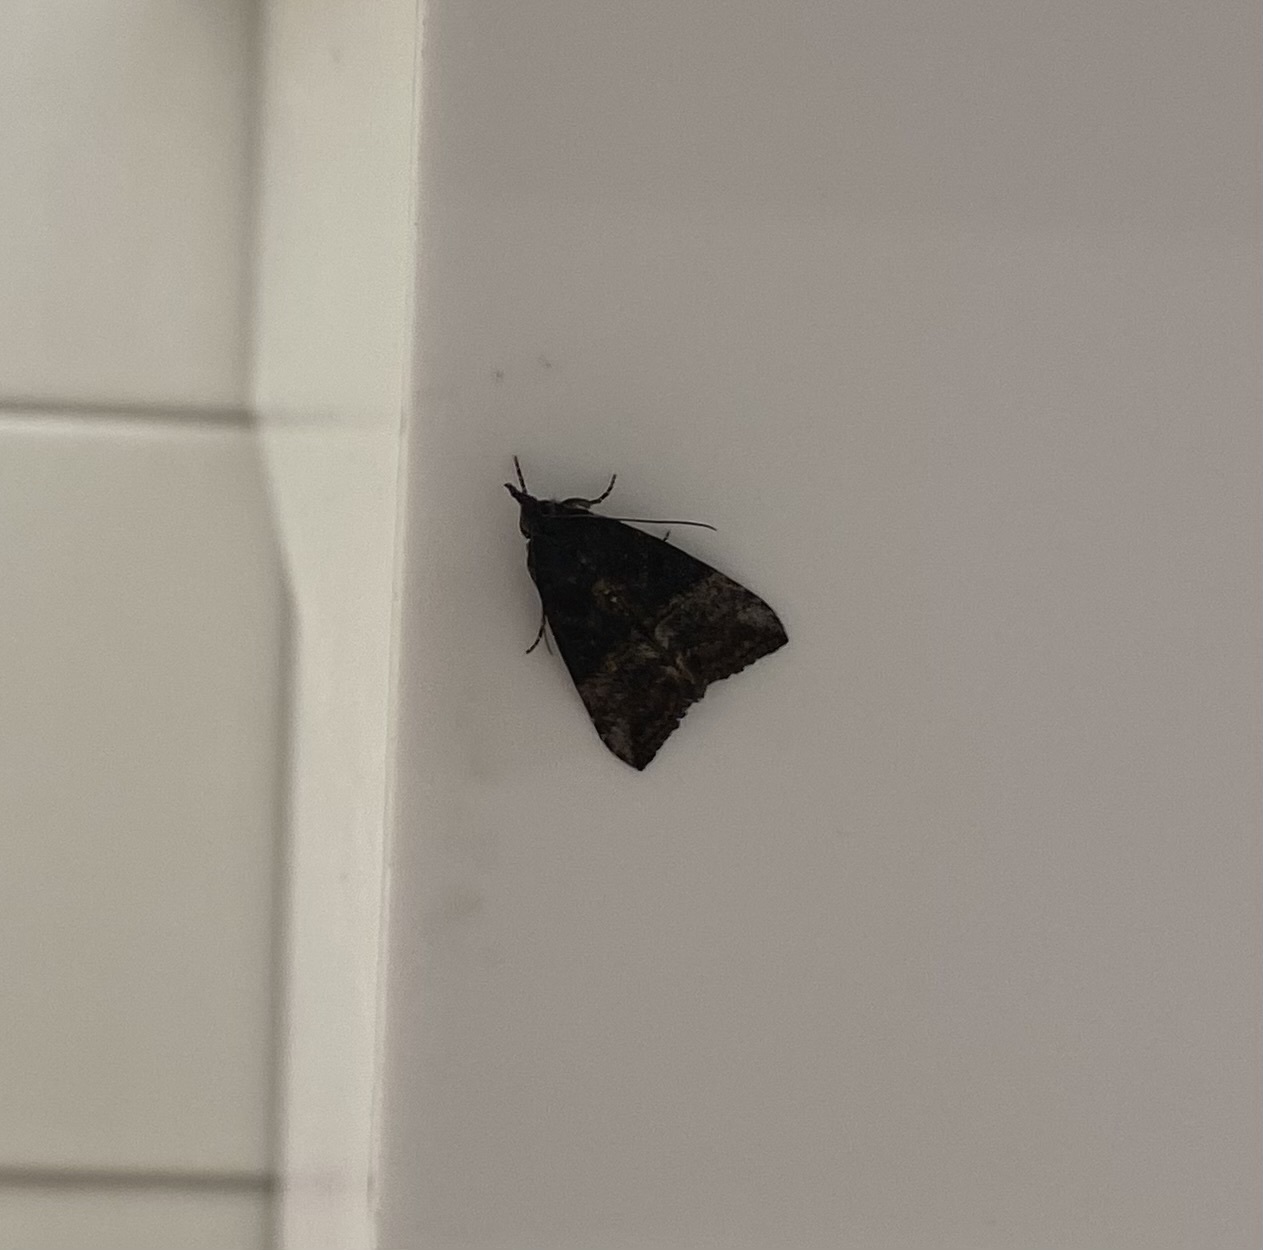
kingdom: Animalia
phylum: Arthropoda
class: Insecta
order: Lepidoptera
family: Erebidae
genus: Hypena
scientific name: Hypena scabra
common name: Green cloverworm
